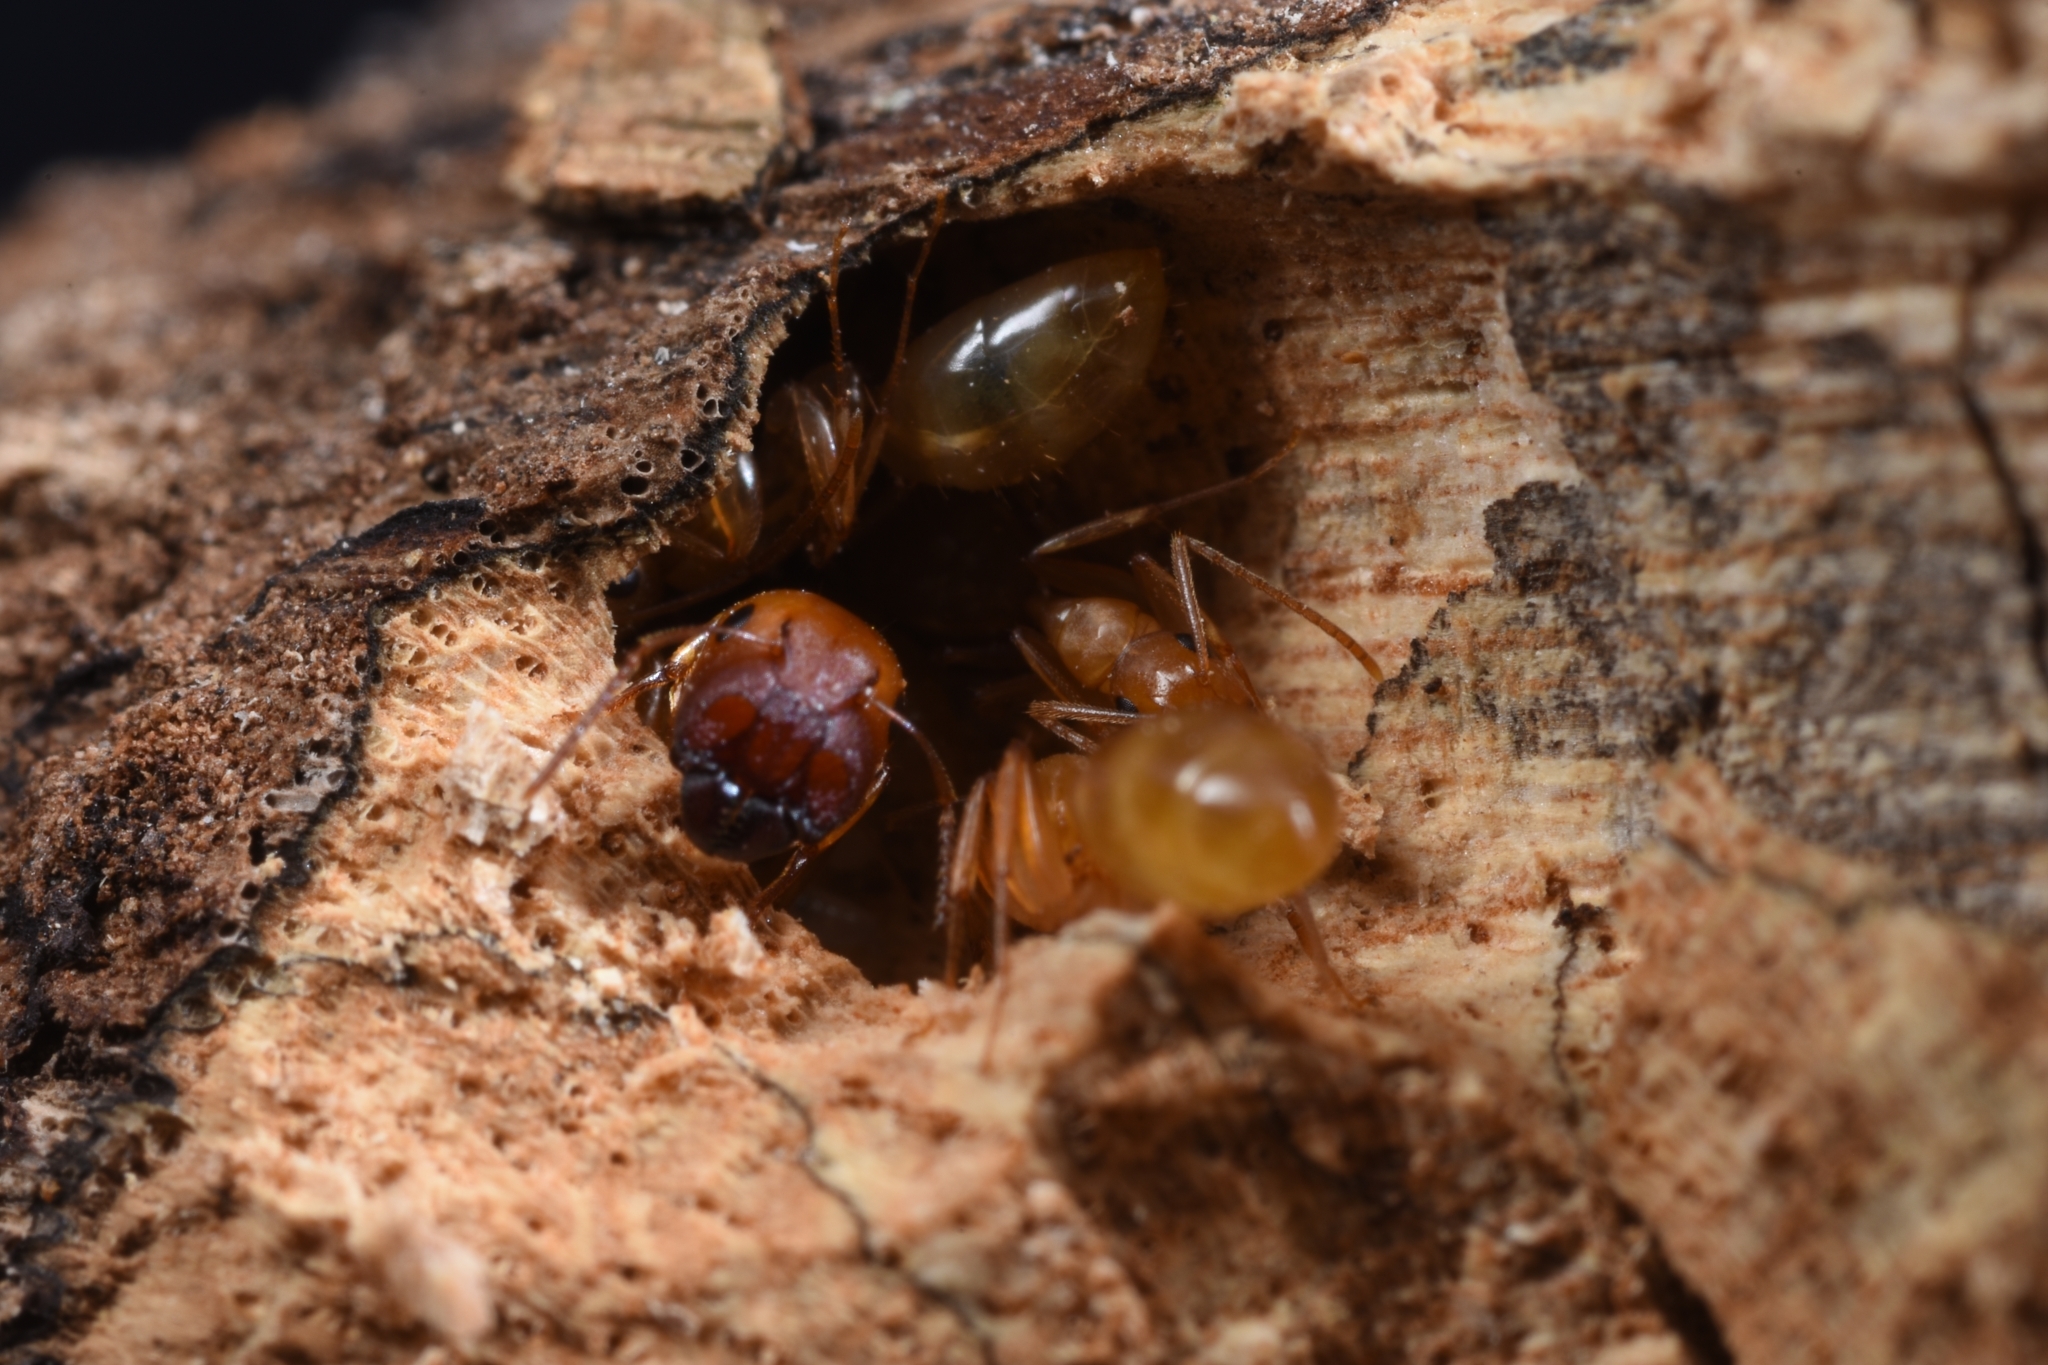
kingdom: Animalia
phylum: Arthropoda
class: Insecta
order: Hymenoptera
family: Formicidae
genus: Colobopsis
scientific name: Colobopsis
